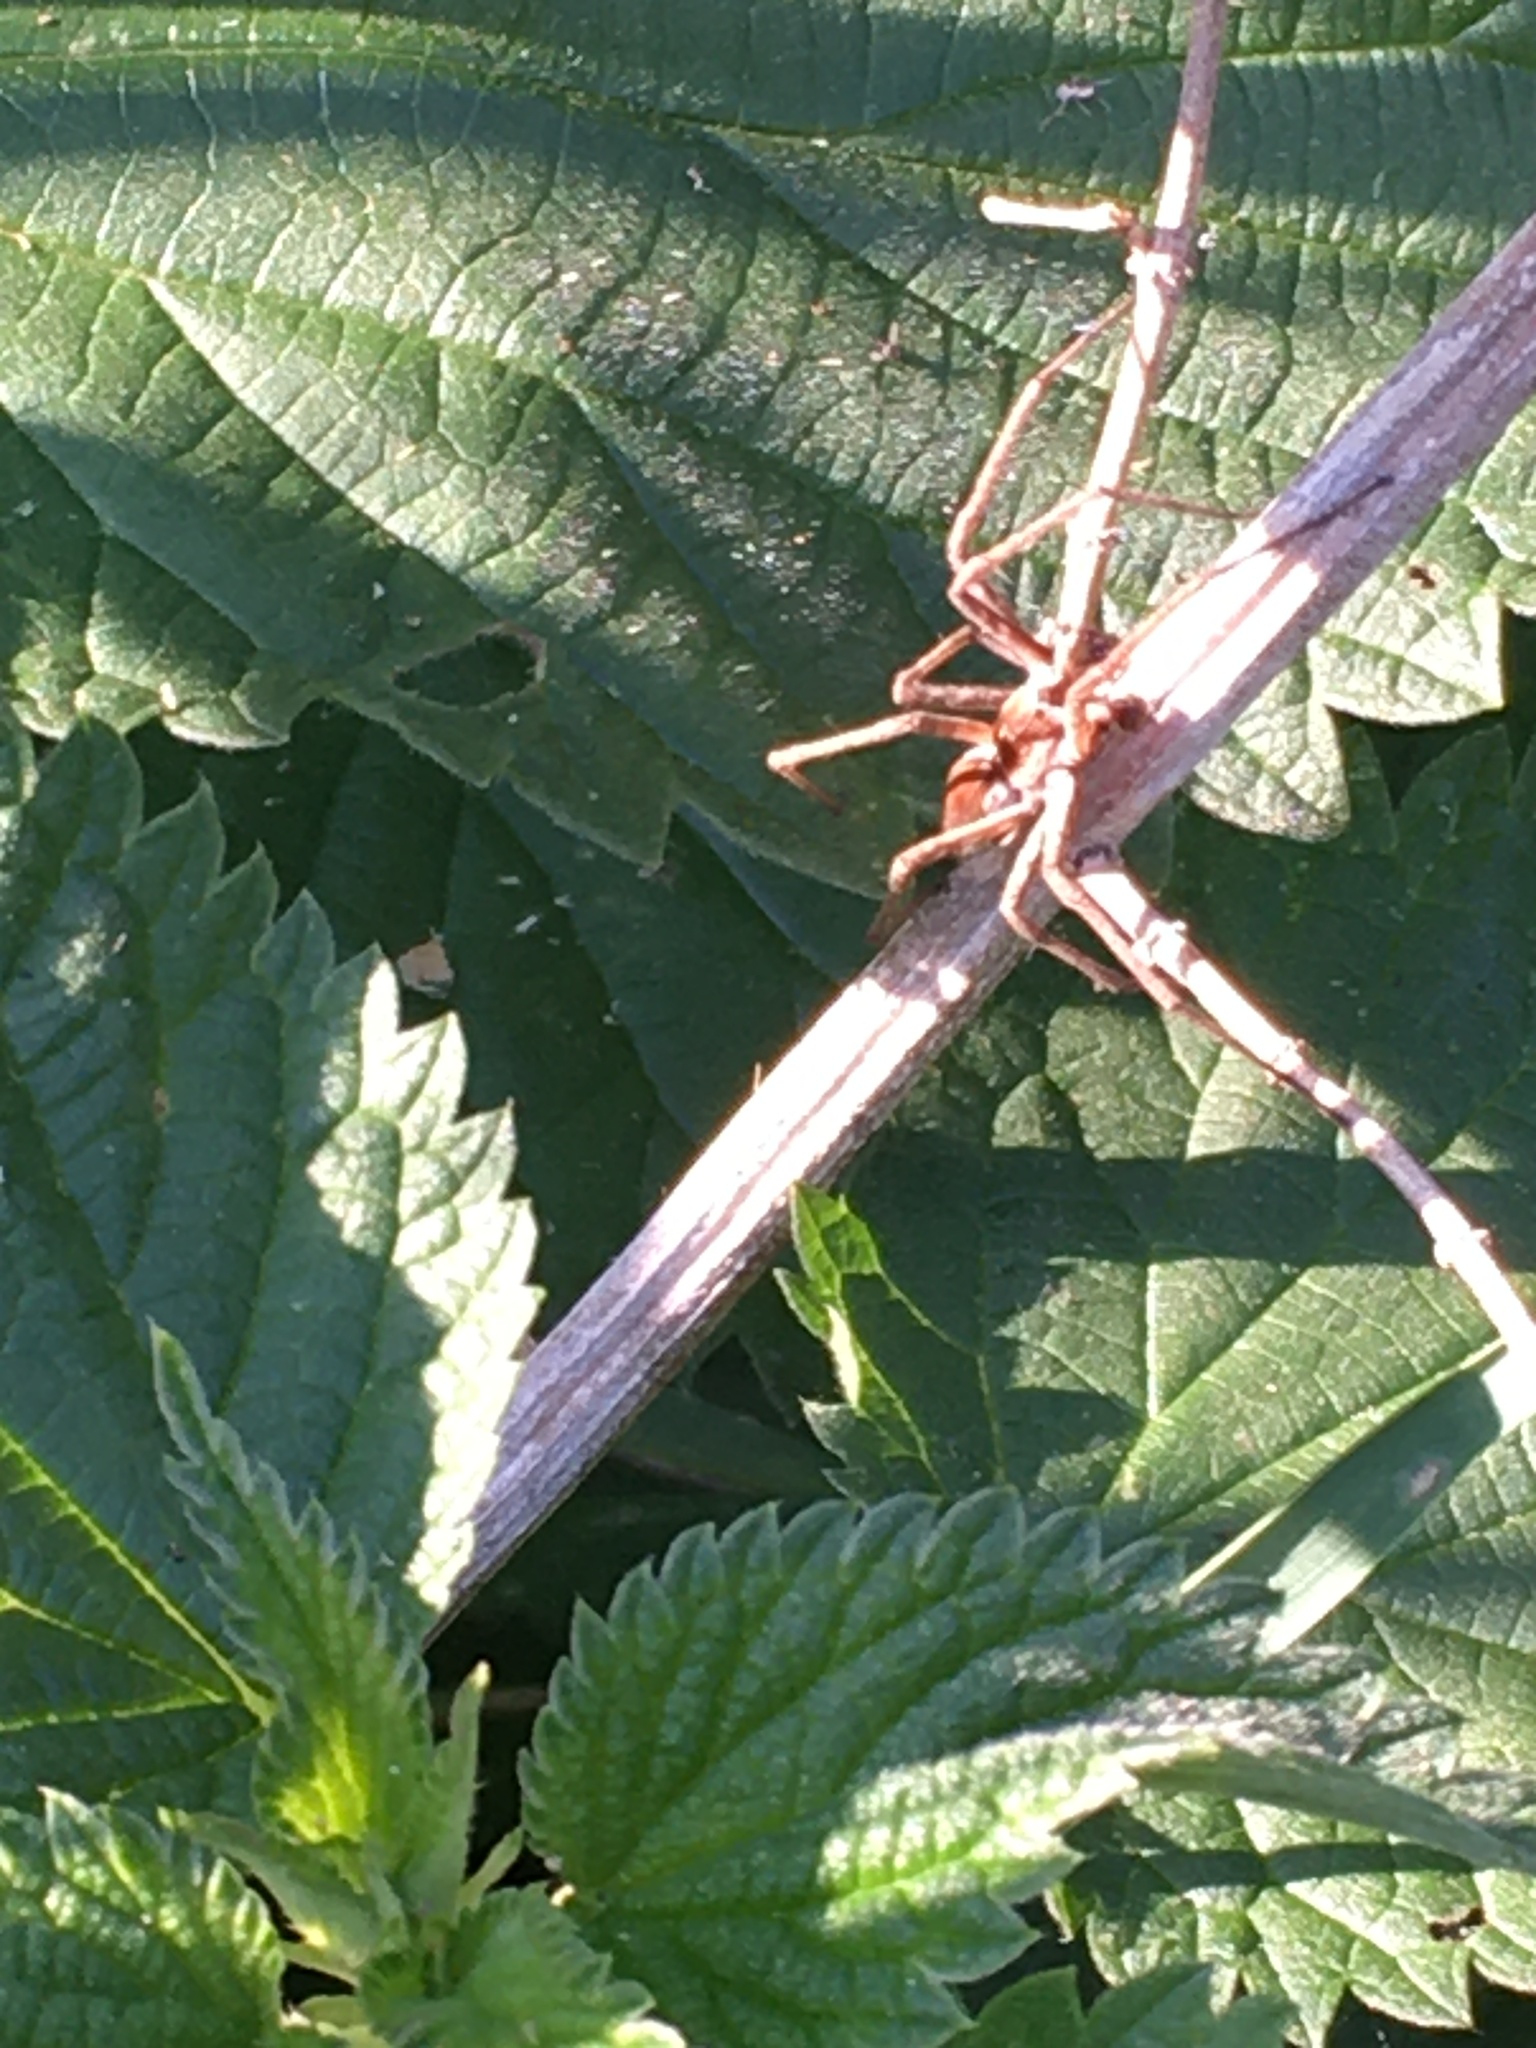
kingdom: Animalia
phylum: Arthropoda
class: Arachnida
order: Araneae
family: Pisauridae
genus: Pisaura
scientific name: Pisaura mirabilis
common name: Tent spider
